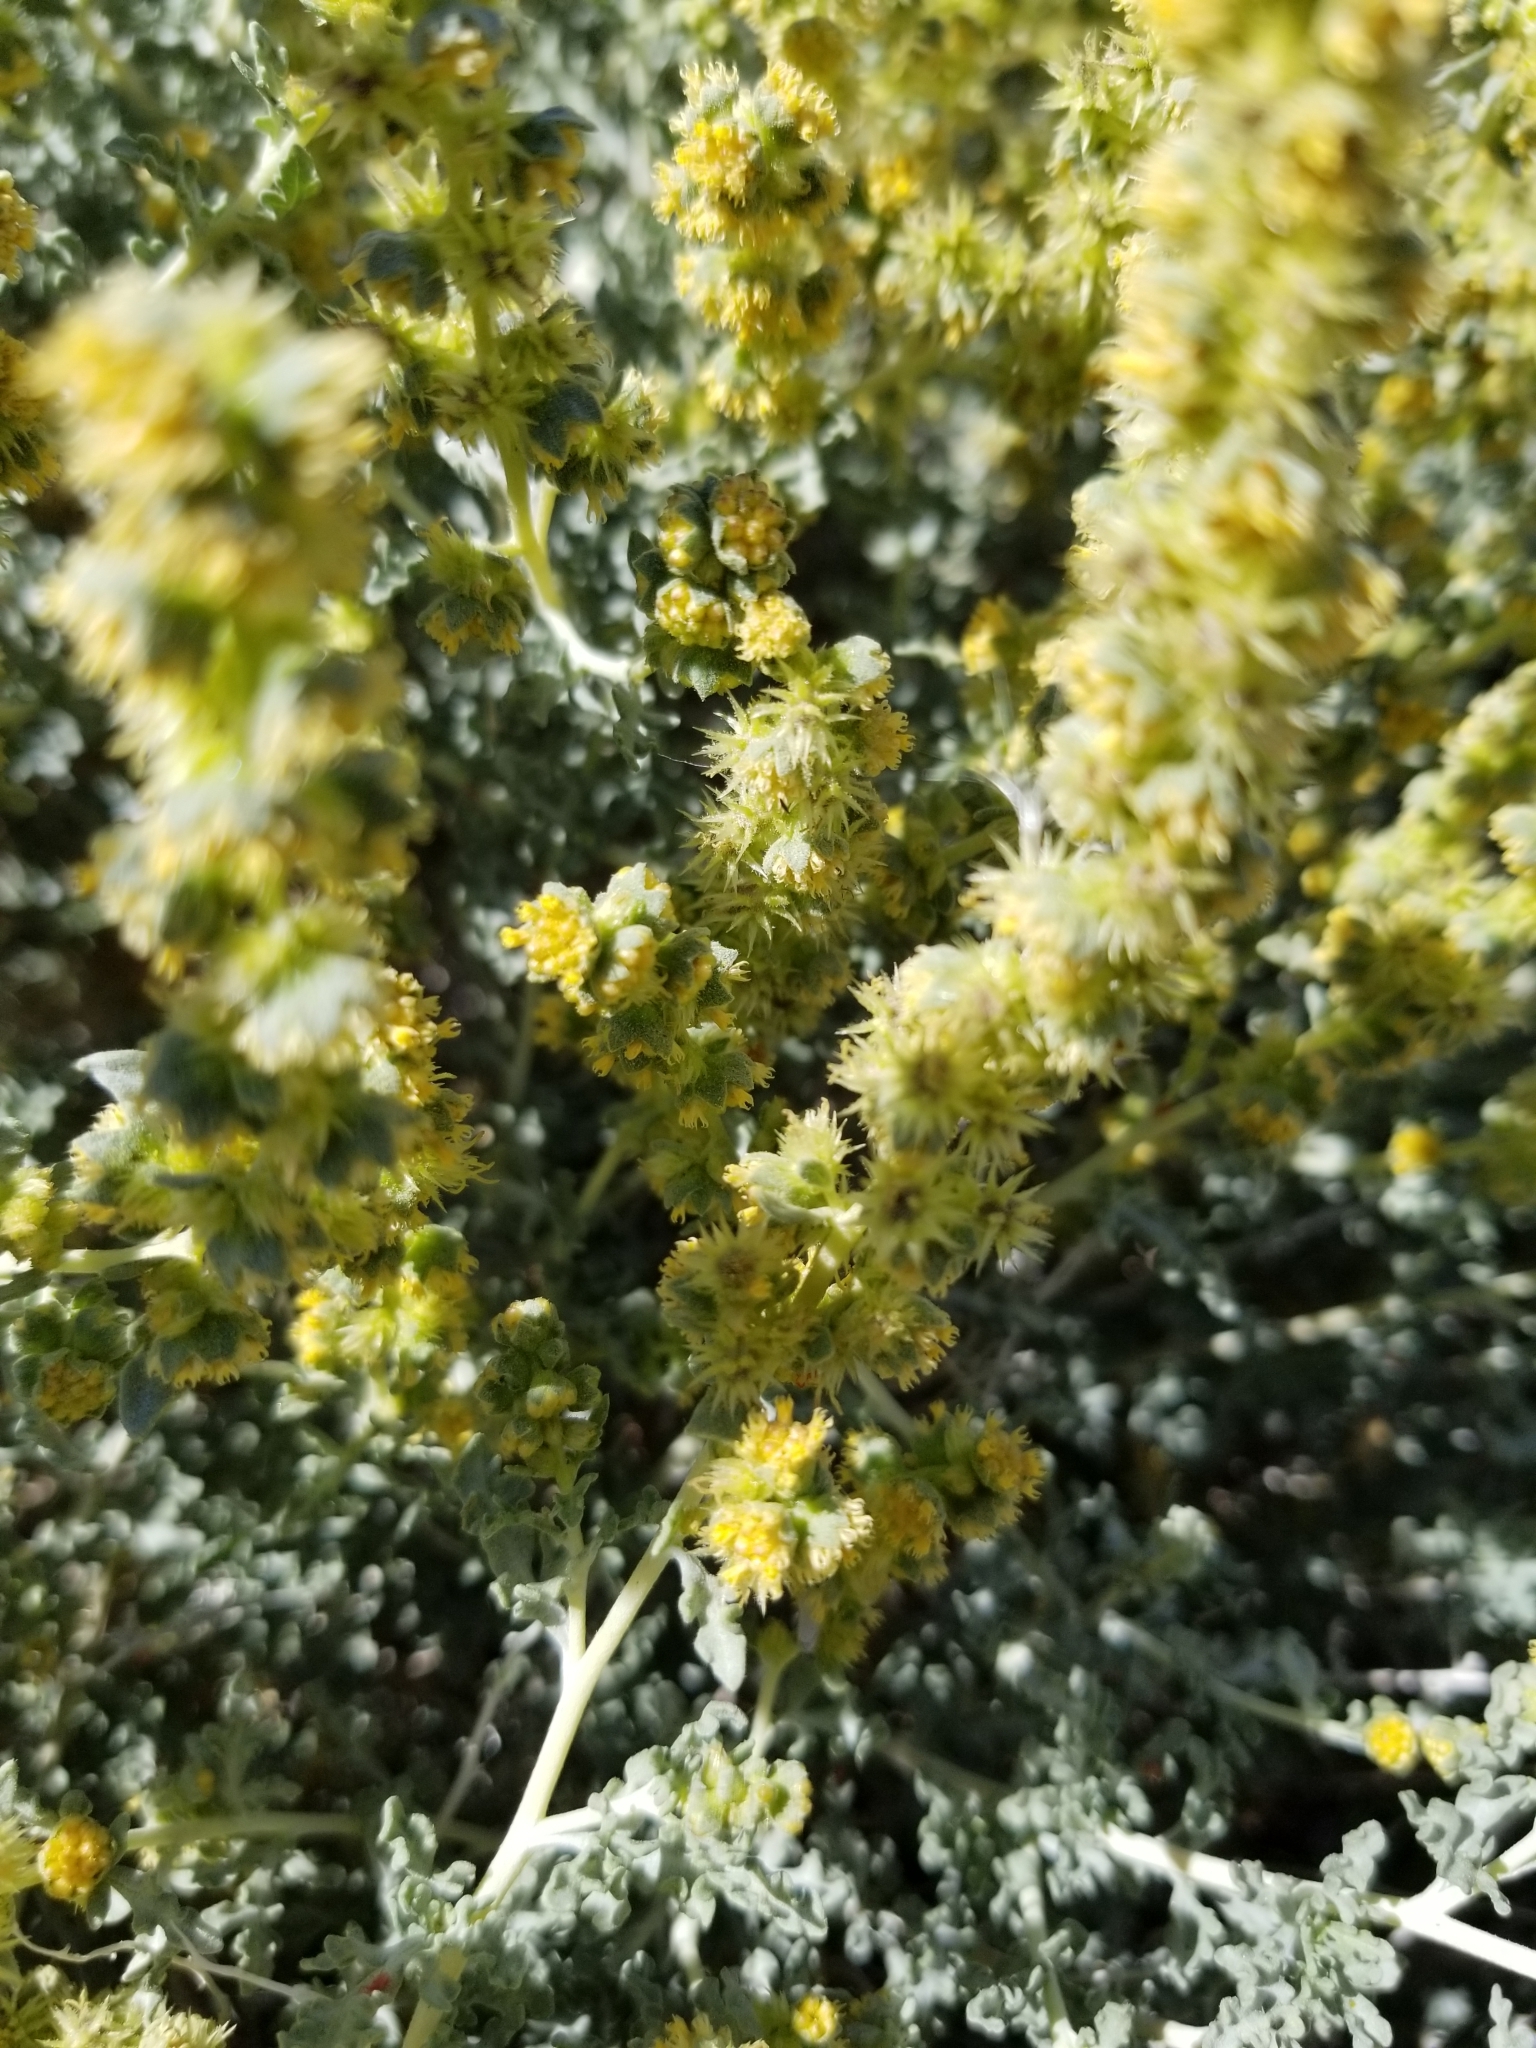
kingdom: Plantae
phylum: Tracheophyta
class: Magnoliopsida
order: Asterales
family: Asteraceae
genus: Ambrosia
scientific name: Ambrosia dumosa
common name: Bur-sage
